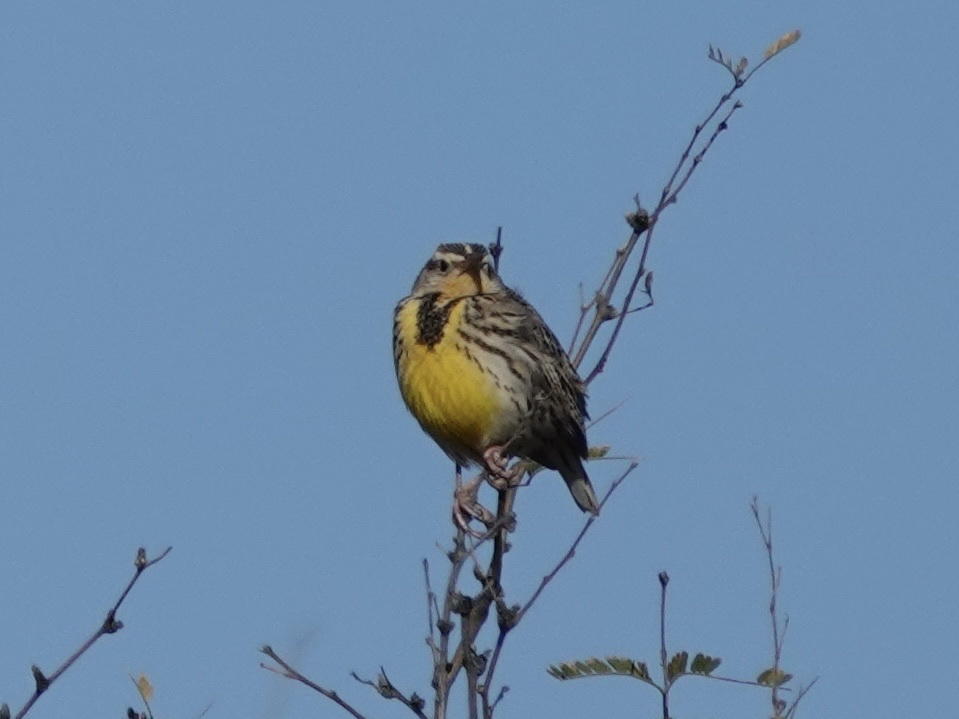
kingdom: Animalia
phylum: Chordata
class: Aves
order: Passeriformes
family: Icteridae
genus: Sturnella
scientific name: Sturnella neglecta
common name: Western meadowlark
